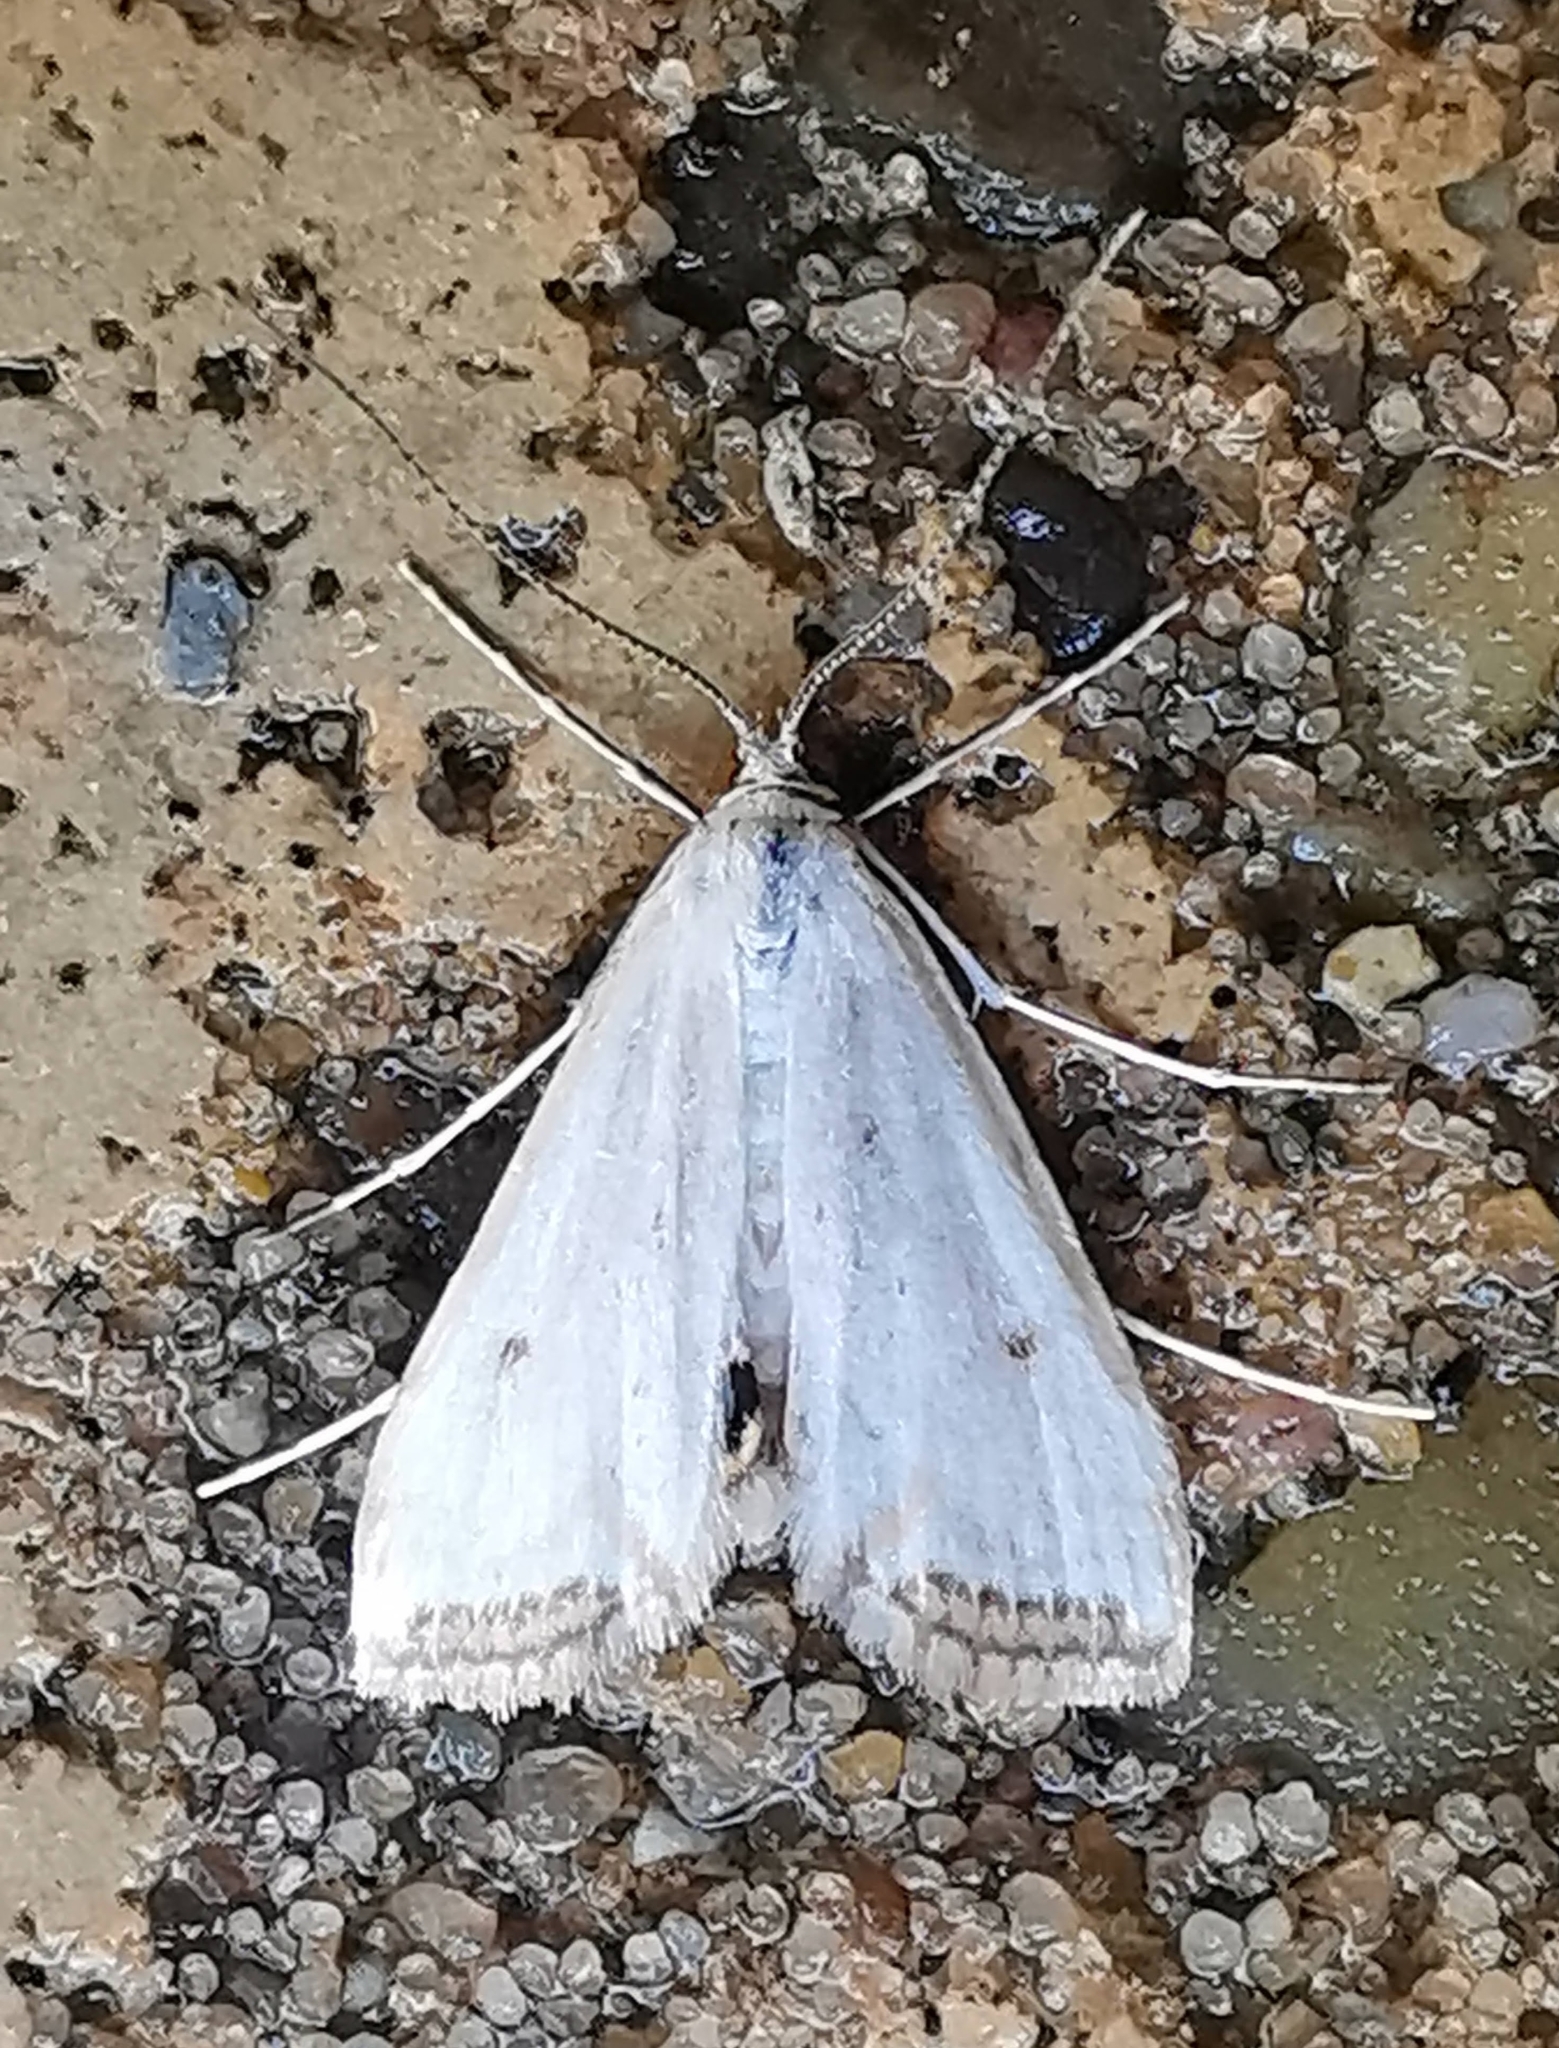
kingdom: Animalia
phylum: Arthropoda
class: Insecta
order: Lepidoptera
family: Crambidae
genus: Cataclysta
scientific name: Cataclysta lemnata
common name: Small china-mark
